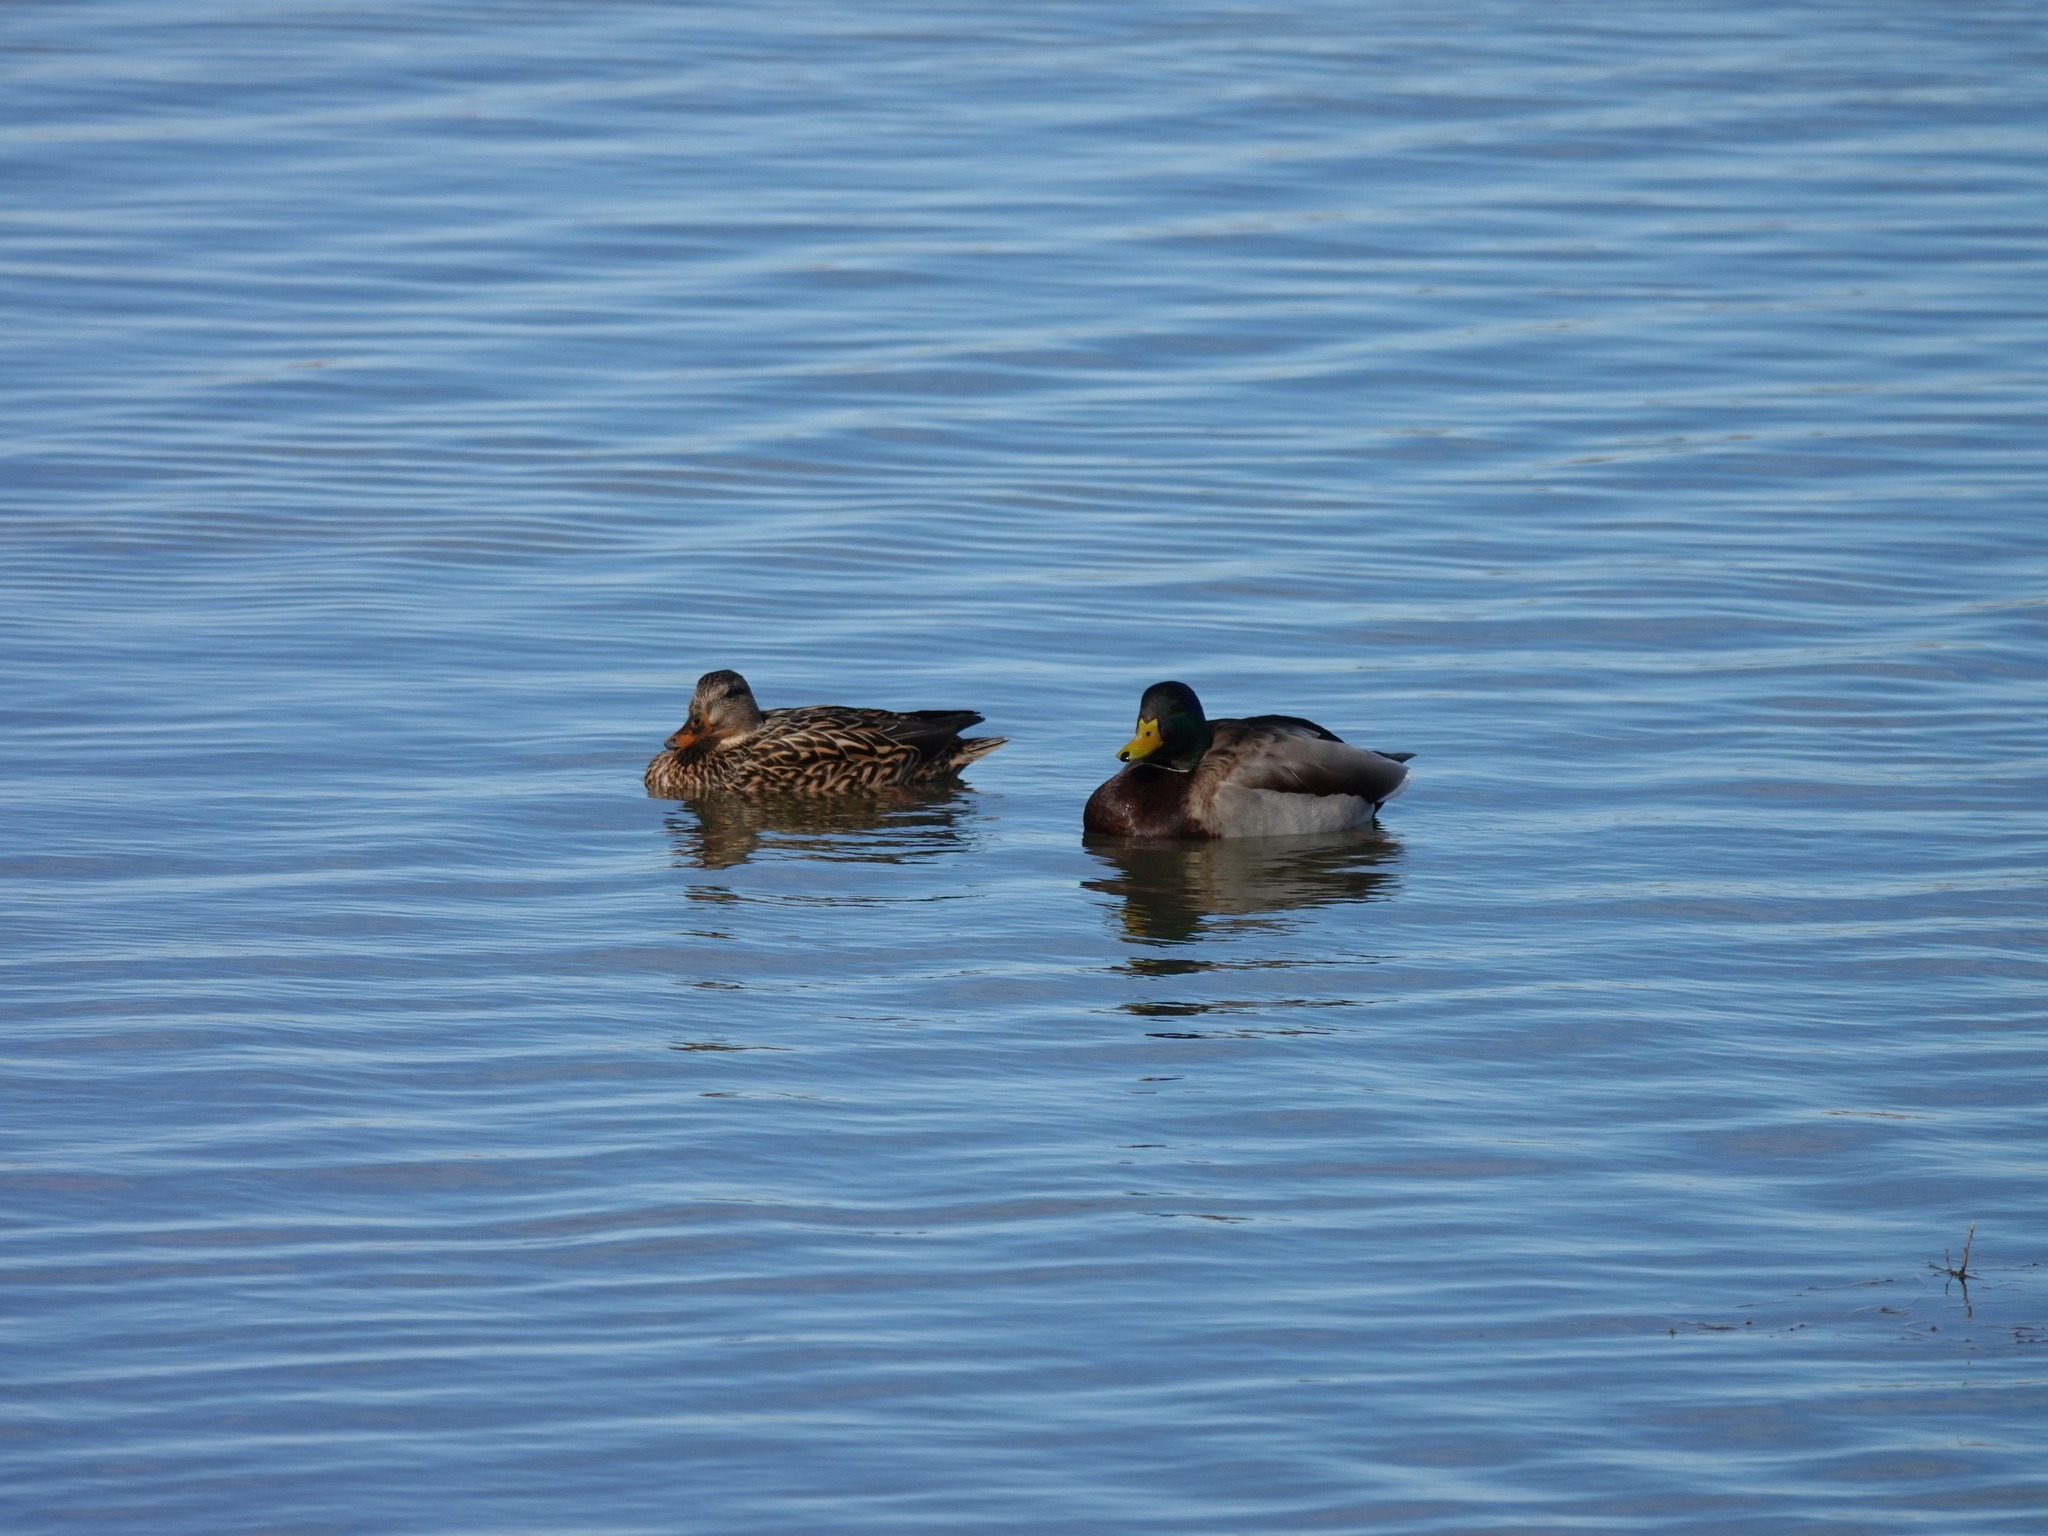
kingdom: Animalia
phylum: Chordata
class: Aves
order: Anseriformes
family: Anatidae
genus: Anas
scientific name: Anas platyrhynchos
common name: Mallard
